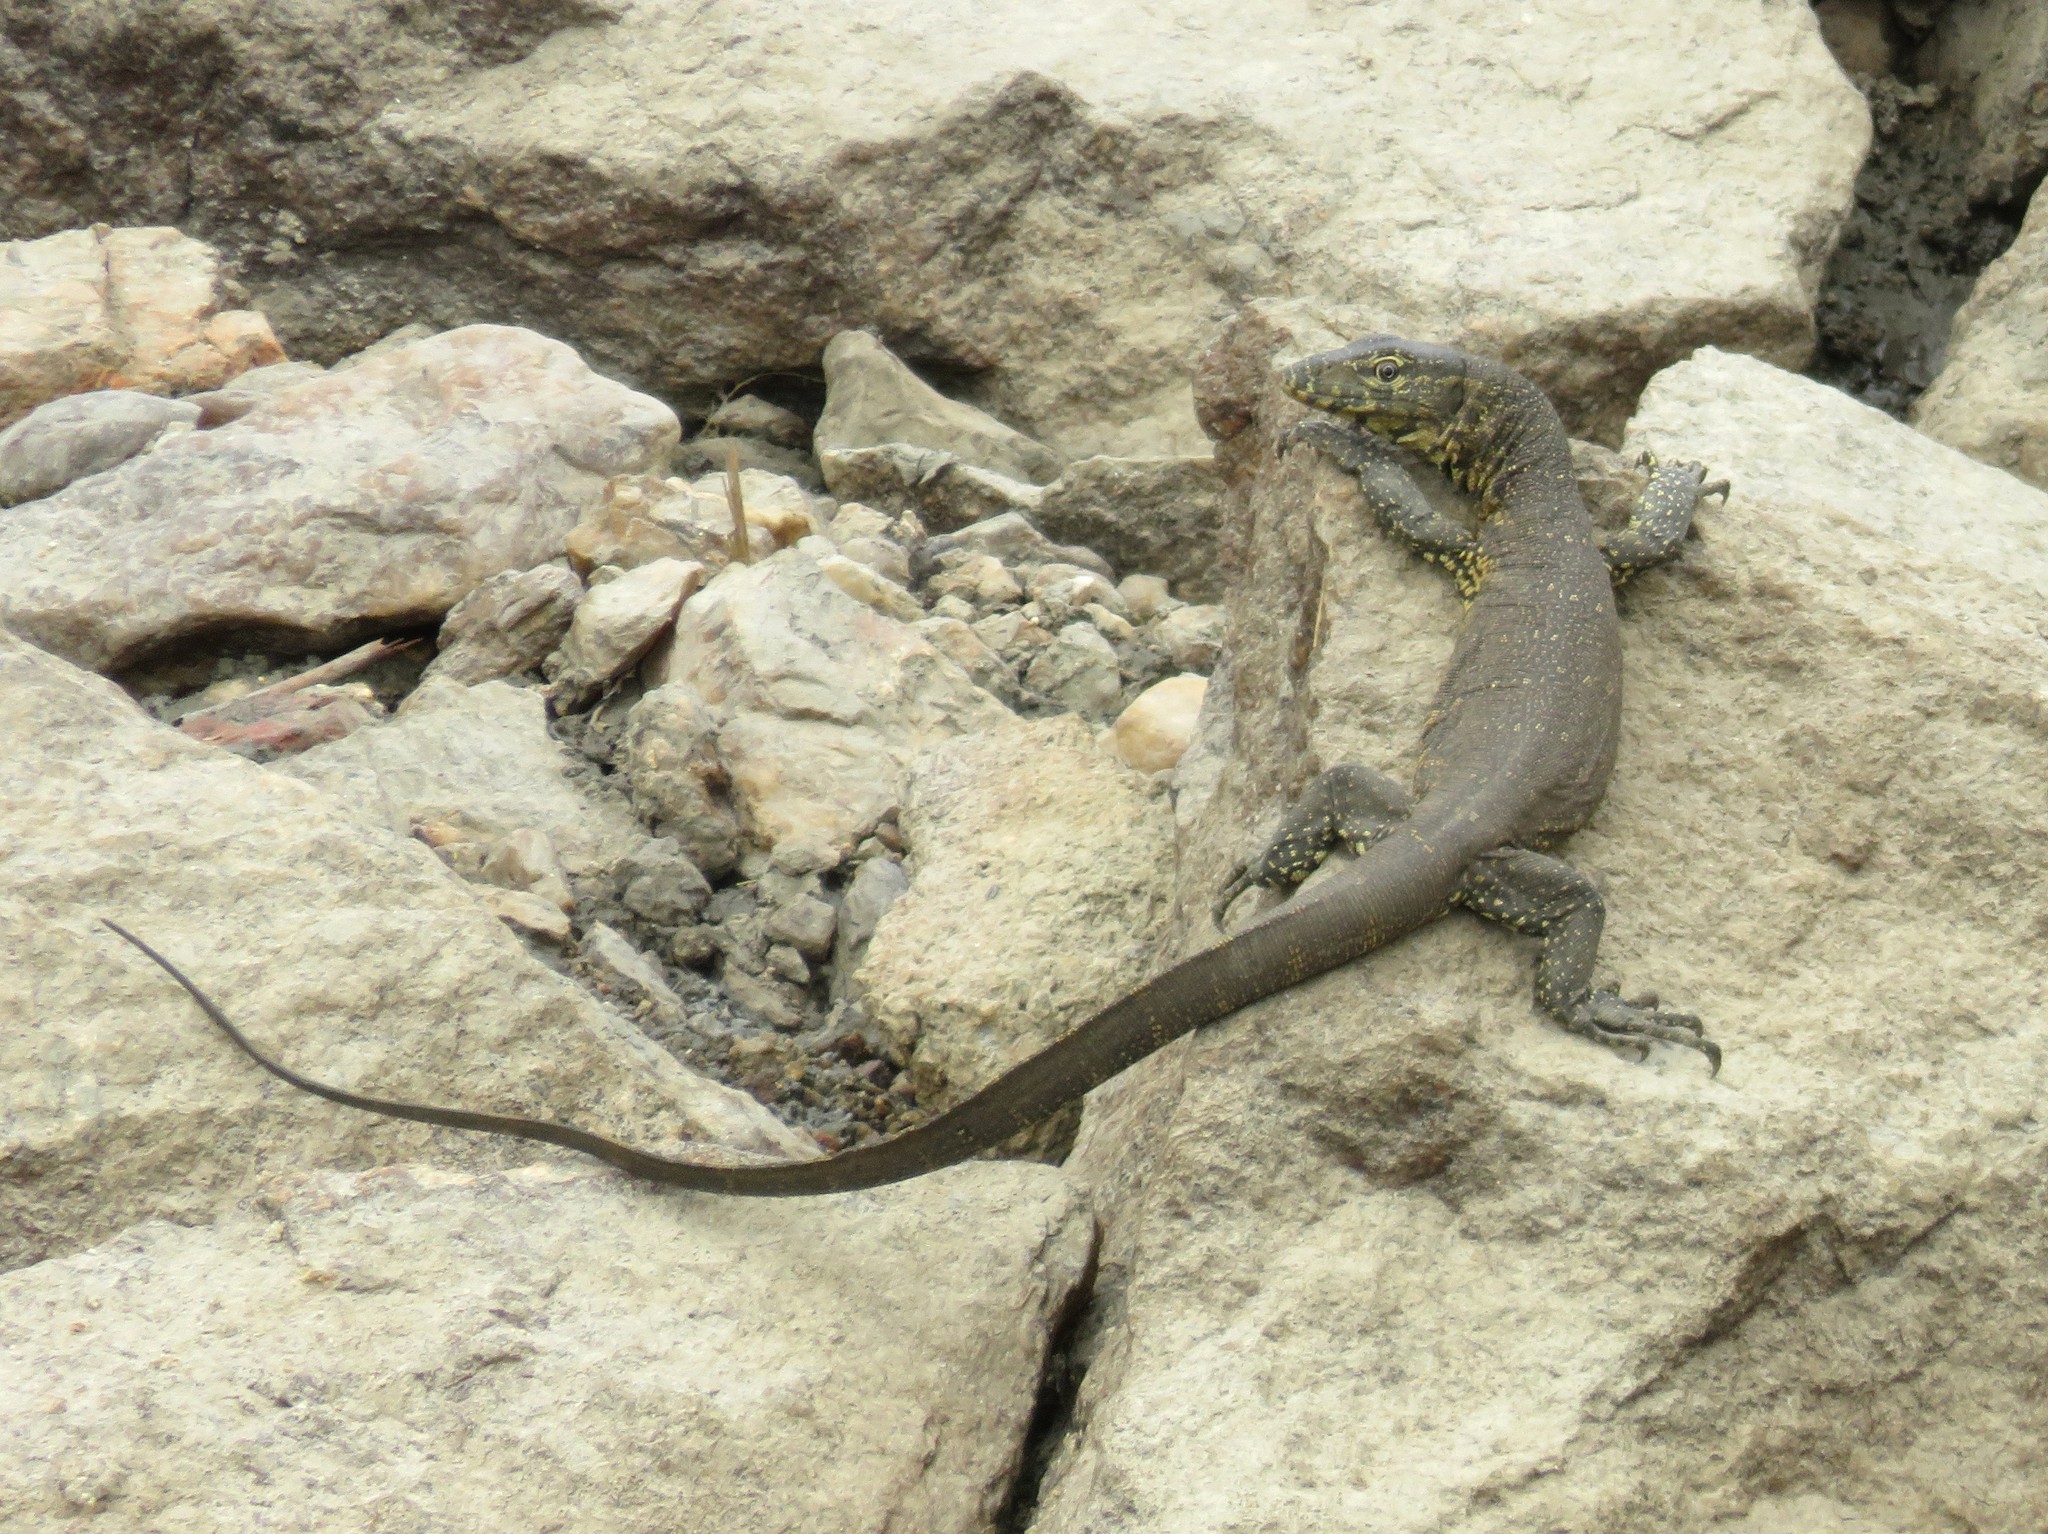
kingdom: Animalia
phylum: Chordata
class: Squamata
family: Varanidae
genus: Varanus
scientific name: Varanus niloticus
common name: Nile monitor
